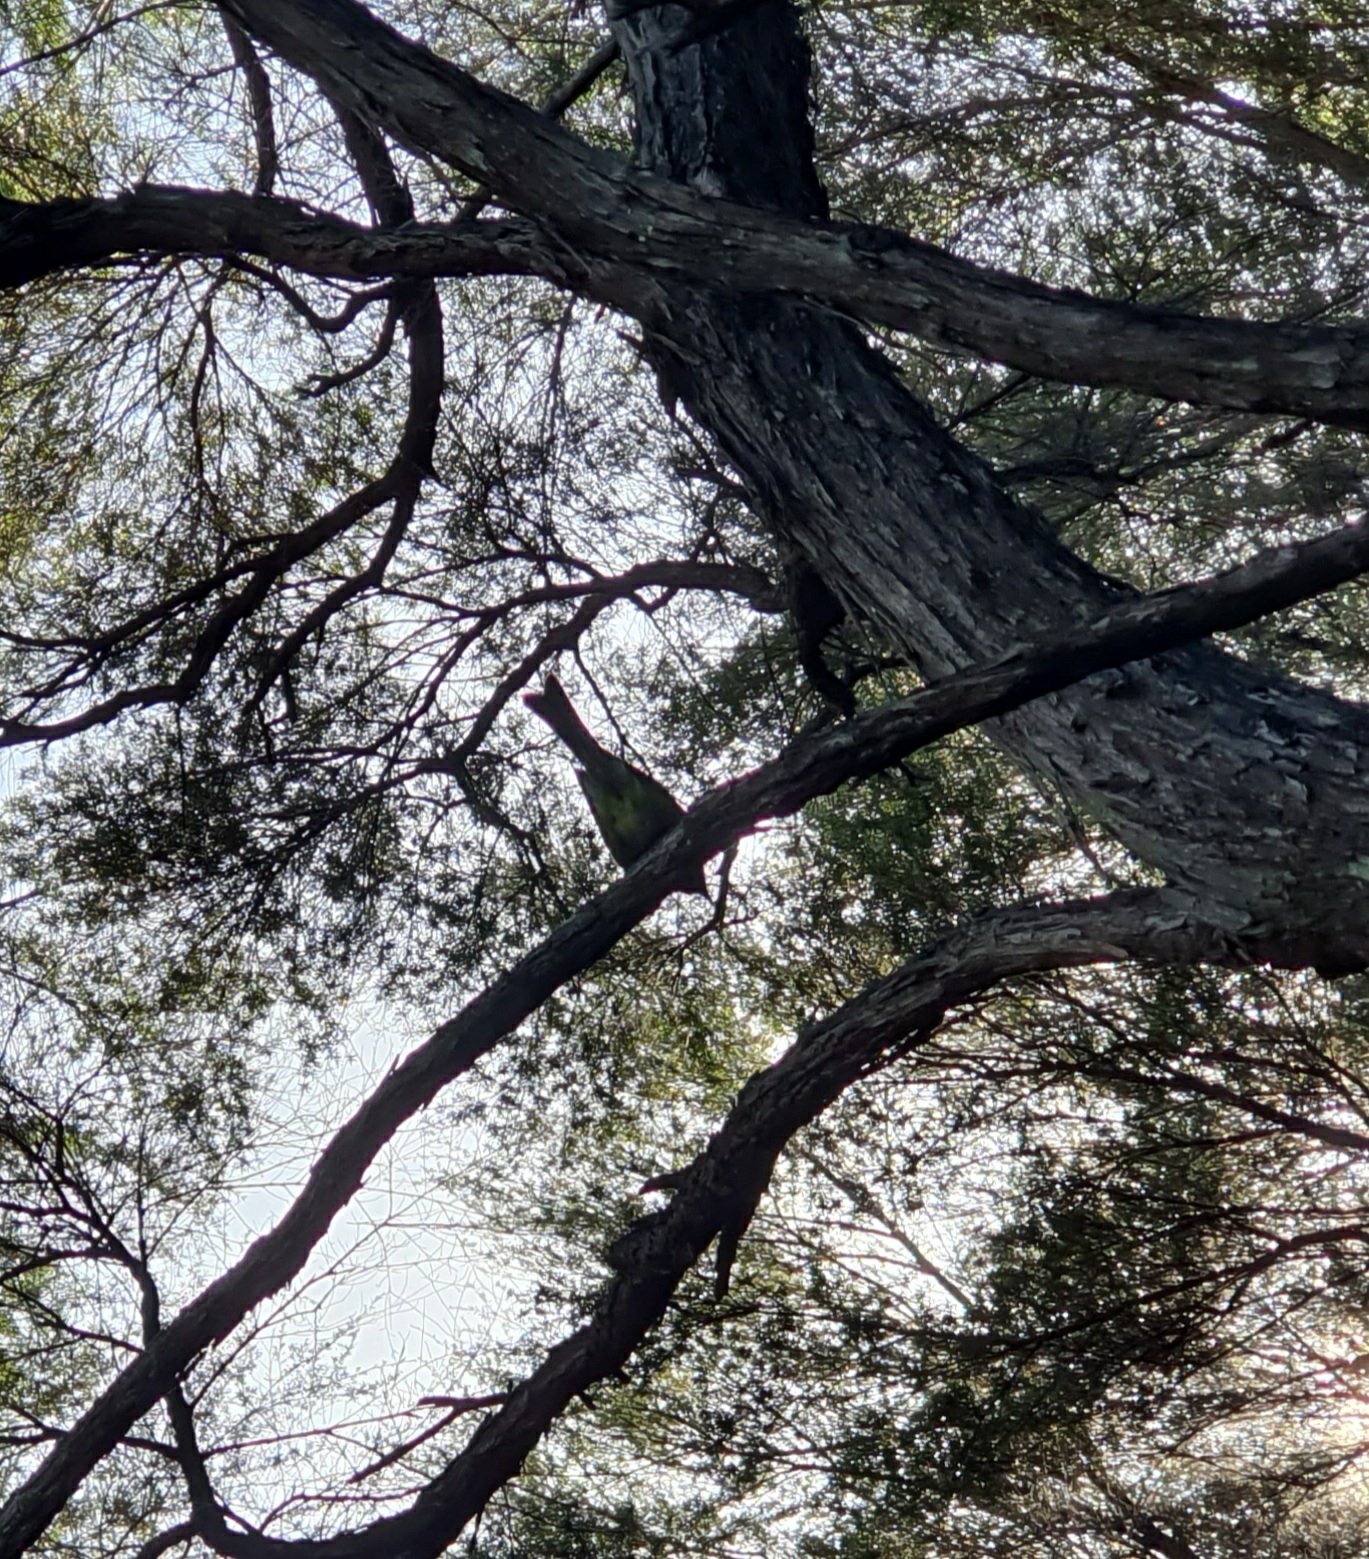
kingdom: Animalia
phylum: Chordata
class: Aves
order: Passeriformes
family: Meliphagidae
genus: Anthornis
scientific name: Anthornis melanura
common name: New zealand bellbird
